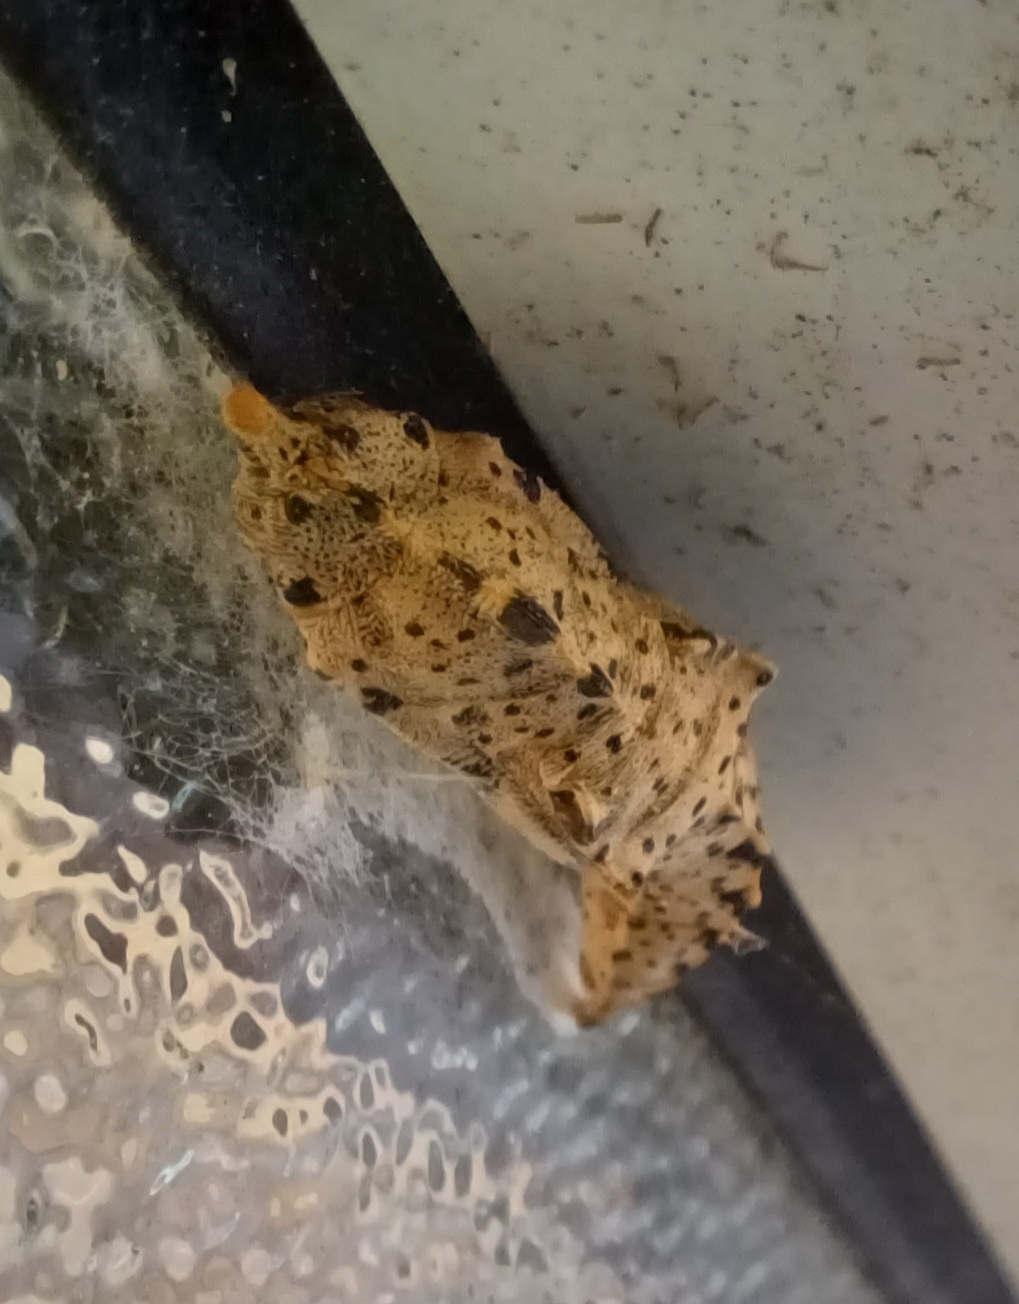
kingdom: Animalia
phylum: Arthropoda
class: Insecta
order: Lepidoptera
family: Pieridae
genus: Pieris
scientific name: Pieris brassicae
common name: Large white
